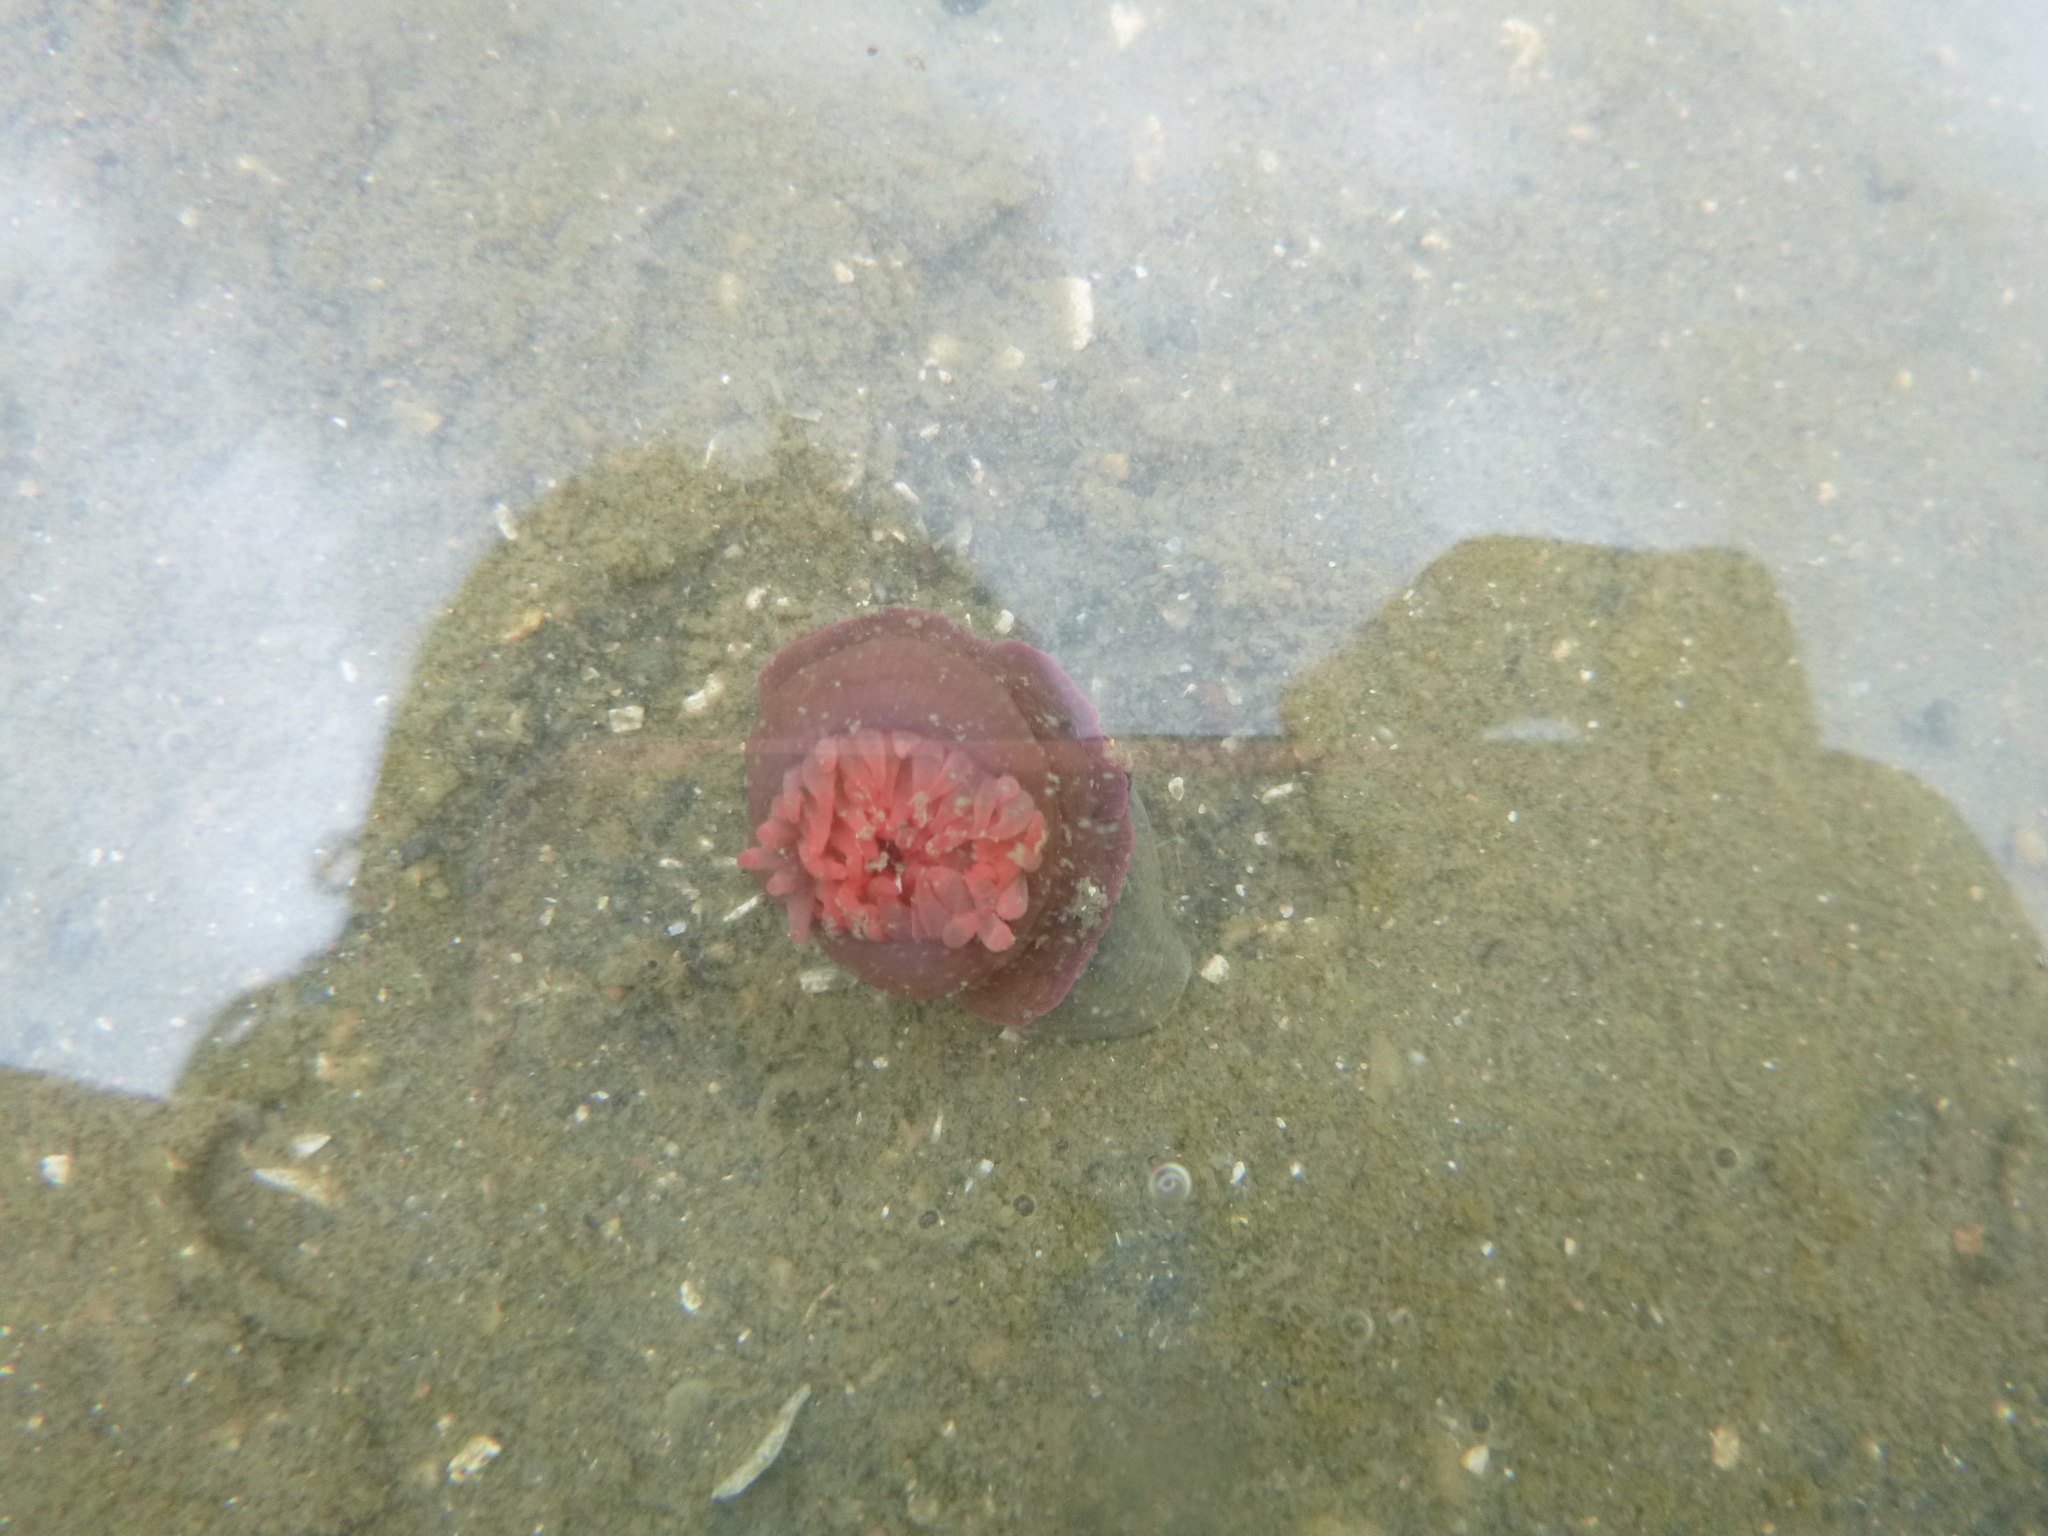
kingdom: Animalia
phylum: Cnidaria
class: Anthozoa
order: Actiniaria
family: Actiniidae
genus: Actinia
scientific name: Actinia tenebrosa
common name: Waratah anemone
